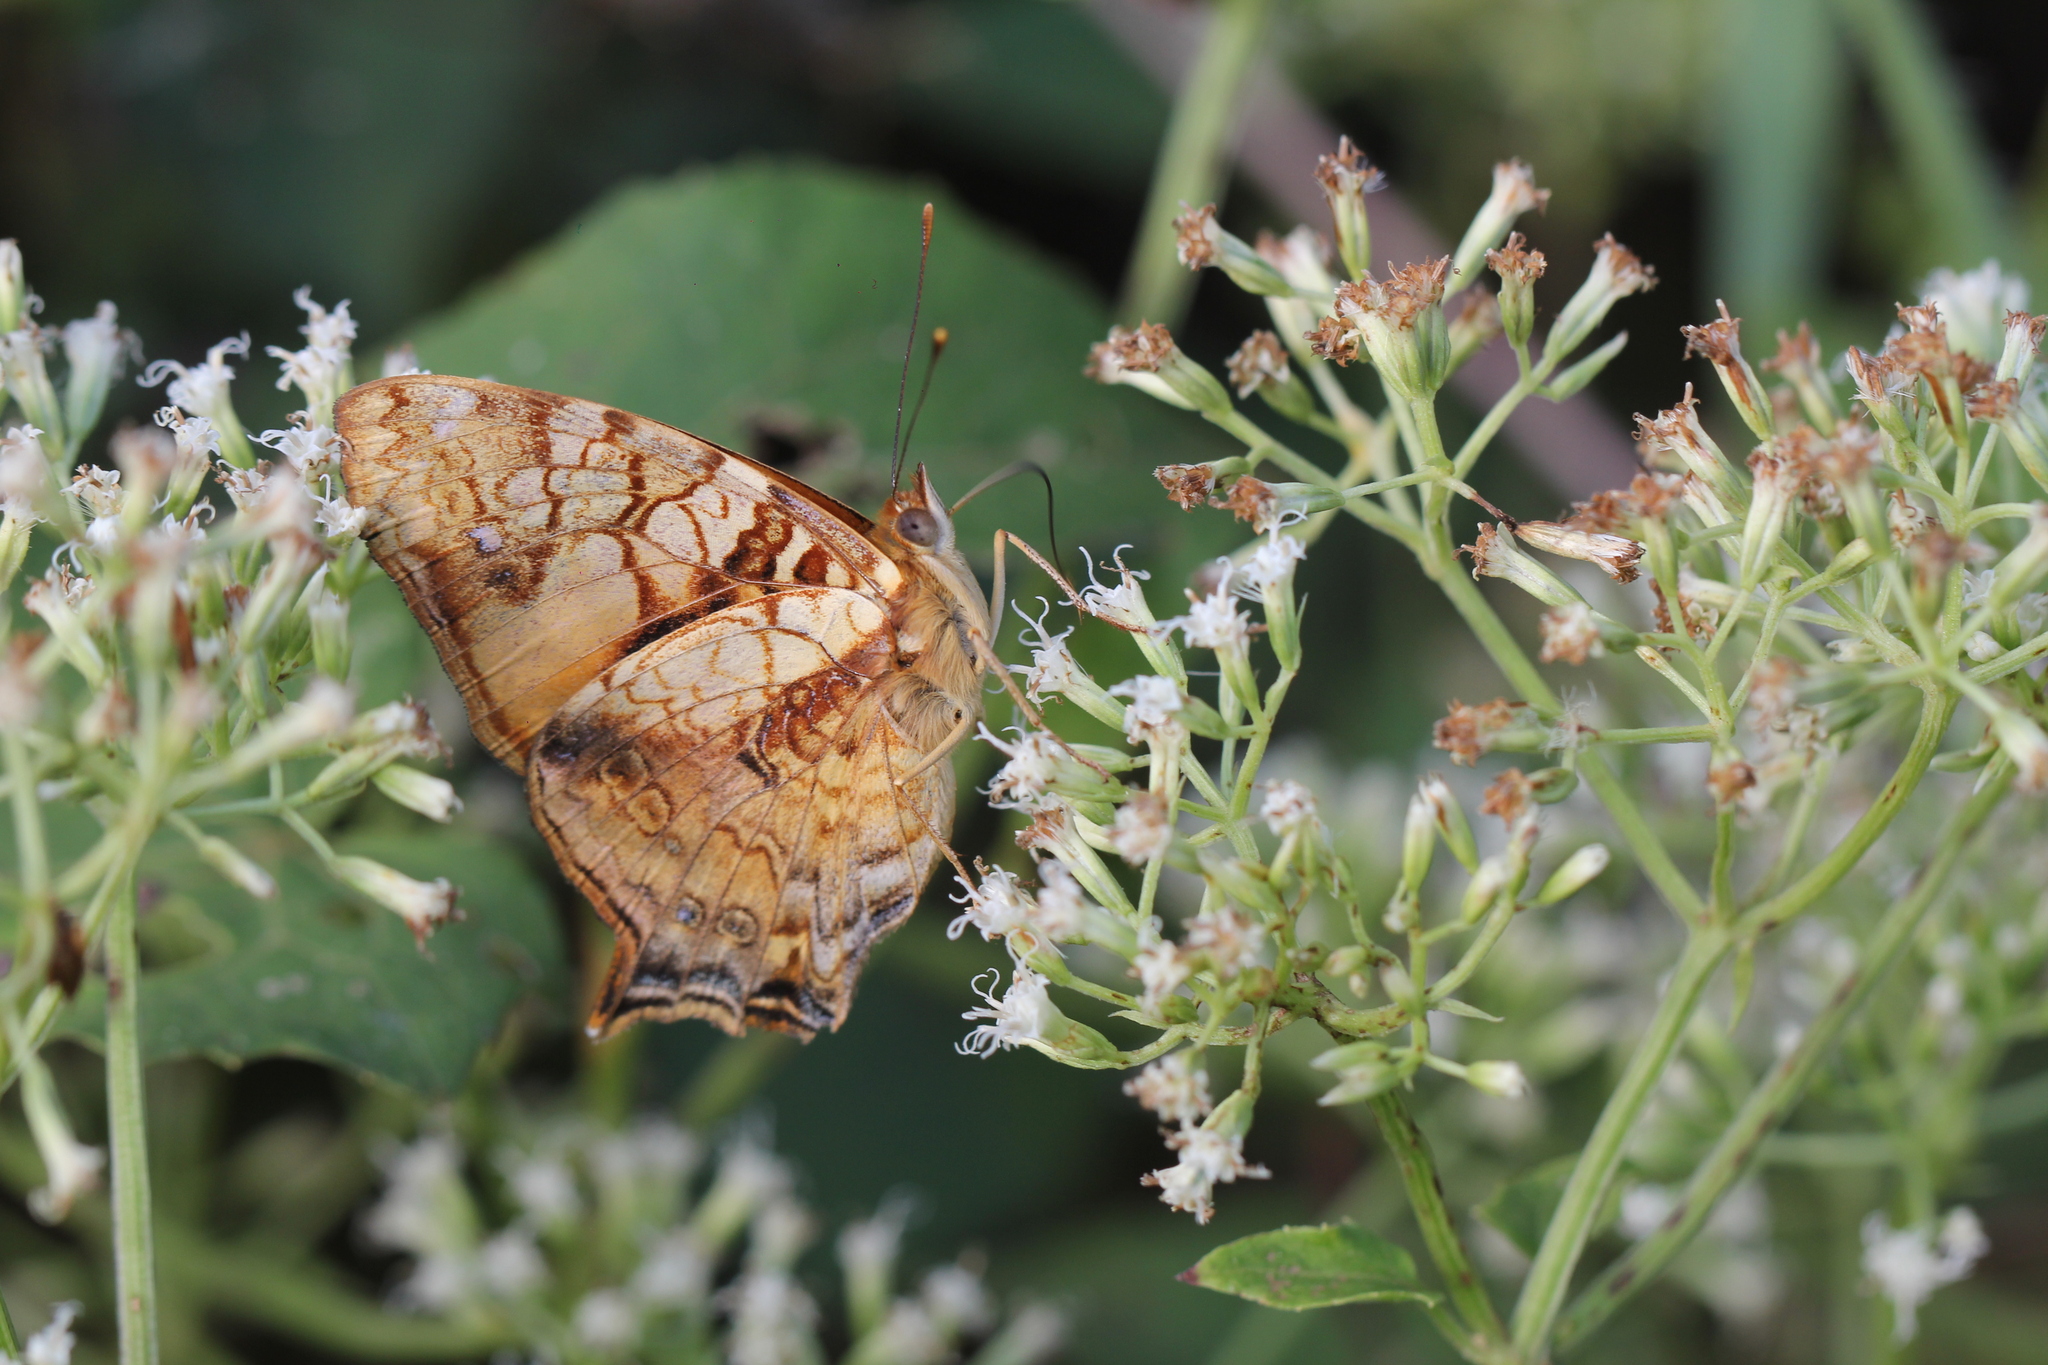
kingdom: Animalia
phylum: Arthropoda
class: Insecta
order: Lepidoptera
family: Nymphalidae
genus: Hypanartia
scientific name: Hypanartia lethe
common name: Orange mapwing
